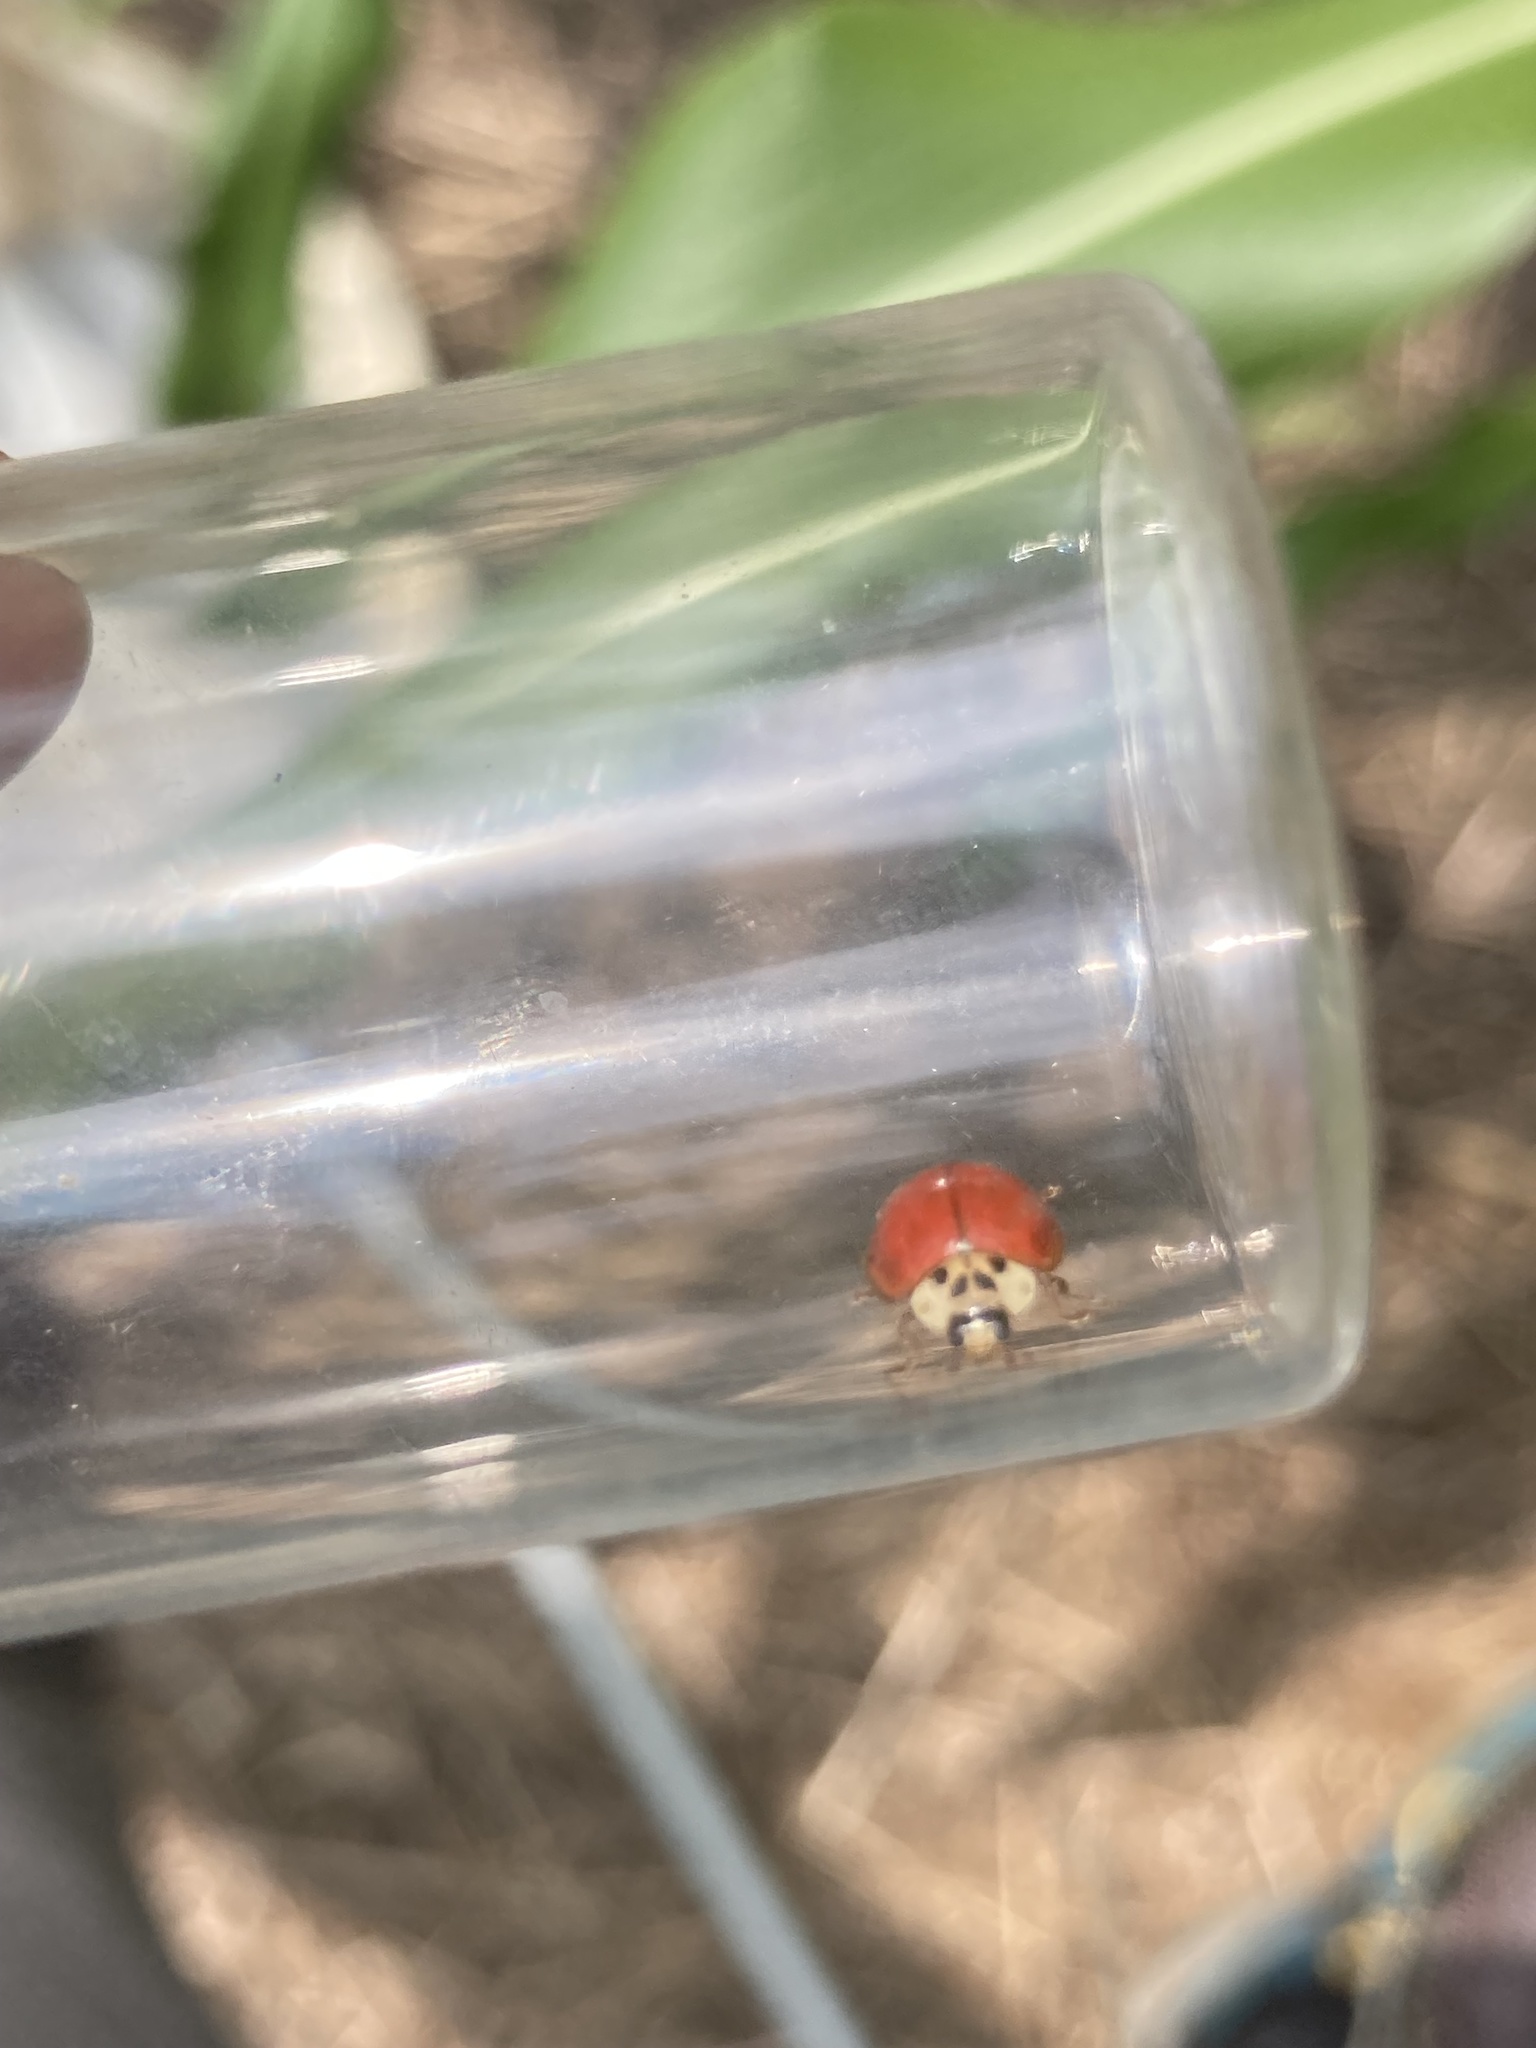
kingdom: Animalia
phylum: Arthropoda
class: Insecta
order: Coleoptera
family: Coccinellidae
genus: Harmonia
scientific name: Harmonia axyridis
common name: Harlequin ladybird
